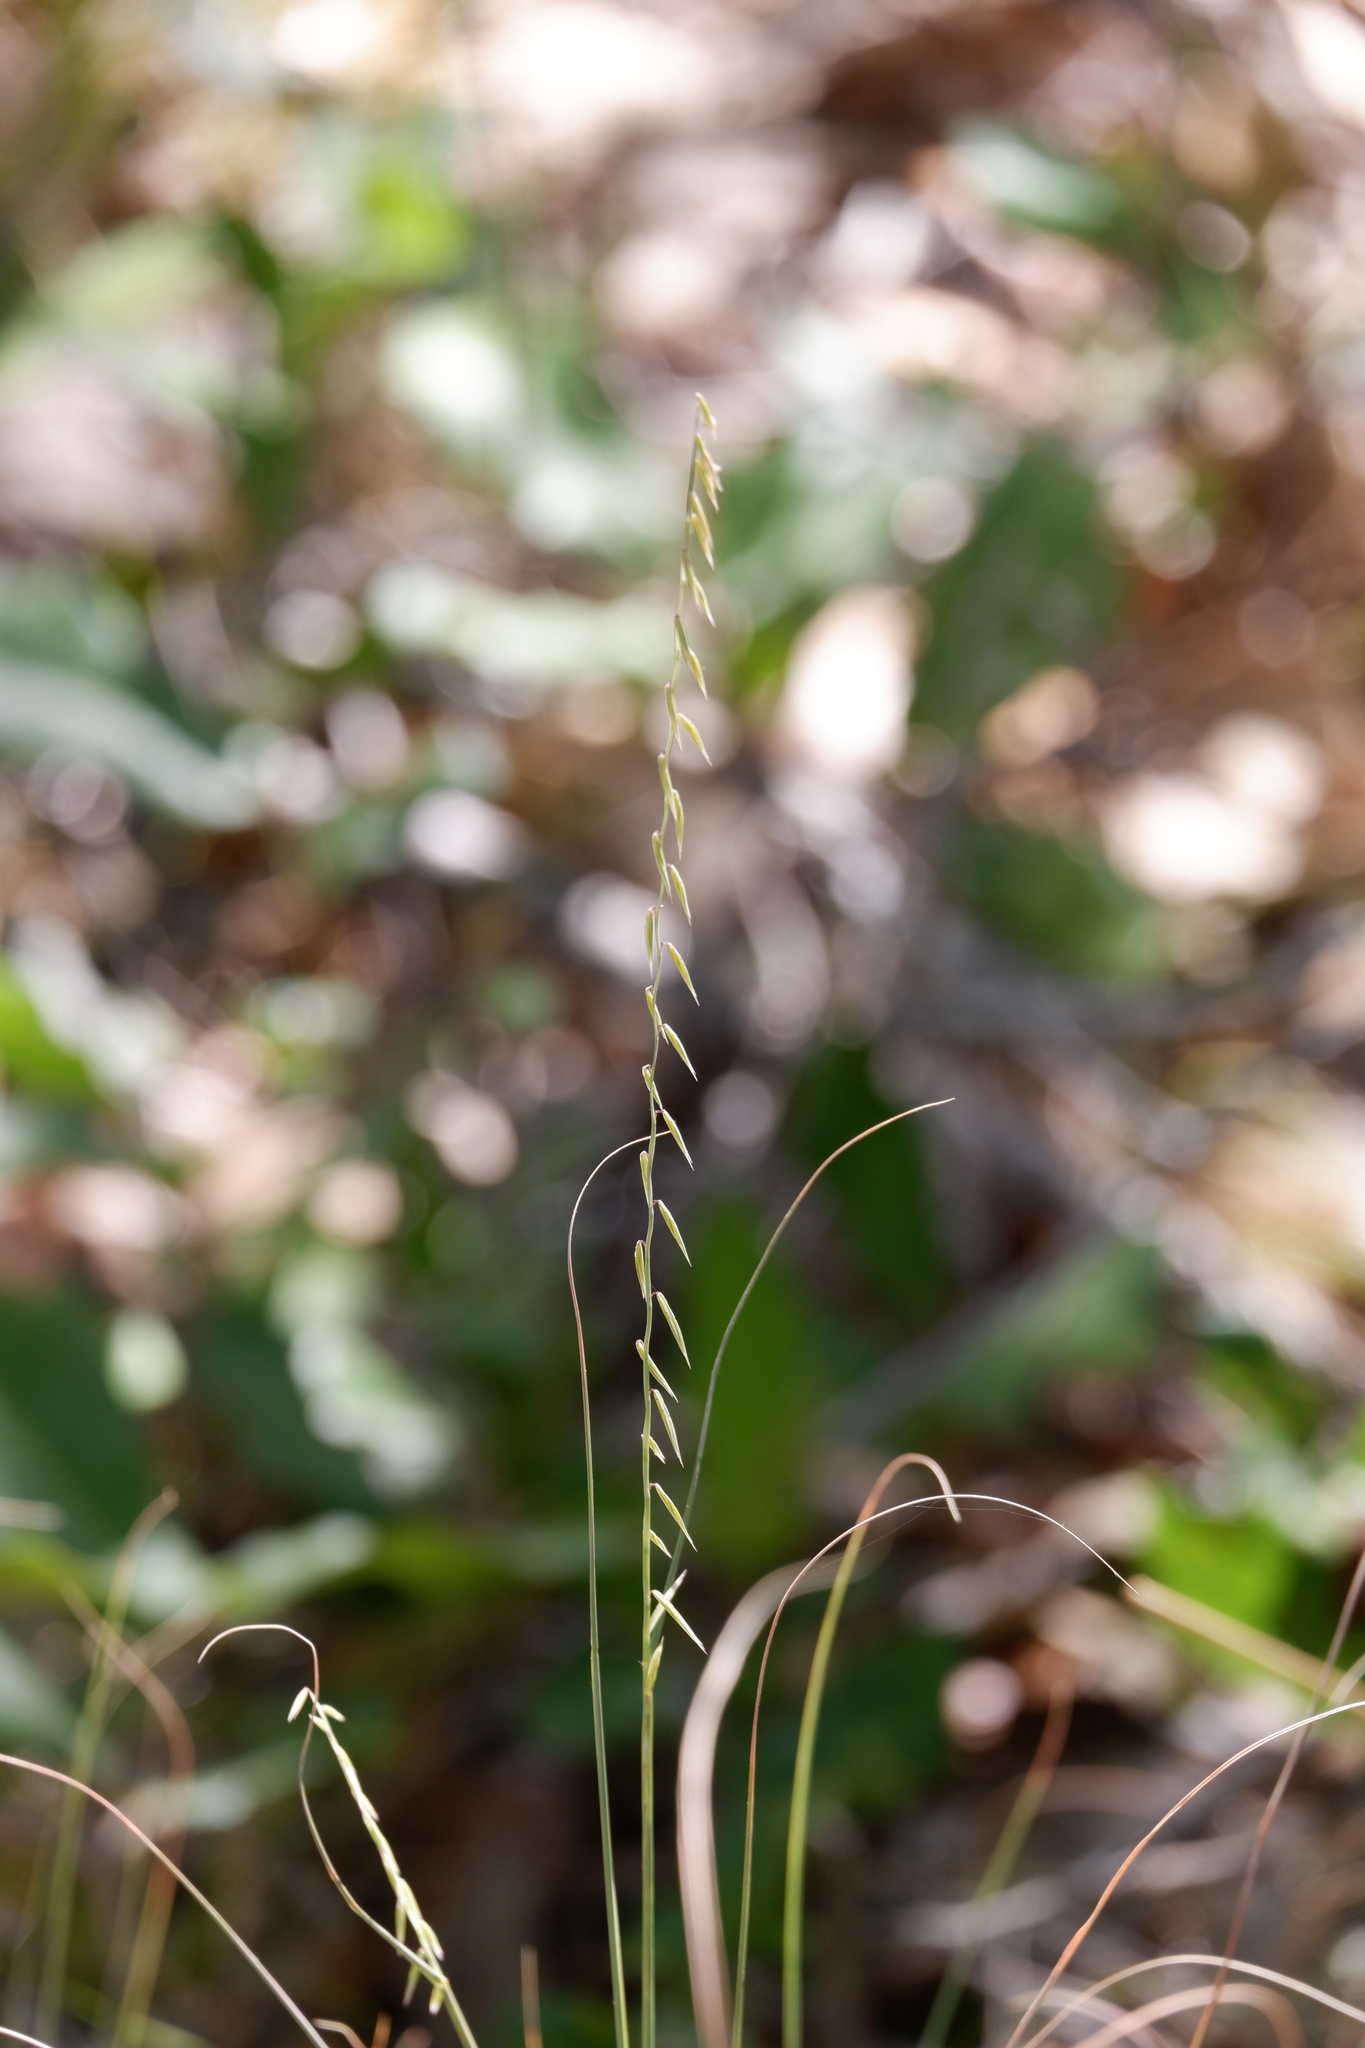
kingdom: Plantae
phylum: Tracheophyta
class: Liliopsida
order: Poales
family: Poaceae
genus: Bouteloua
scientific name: Bouteloua curtipendula
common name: Side-oats grama
